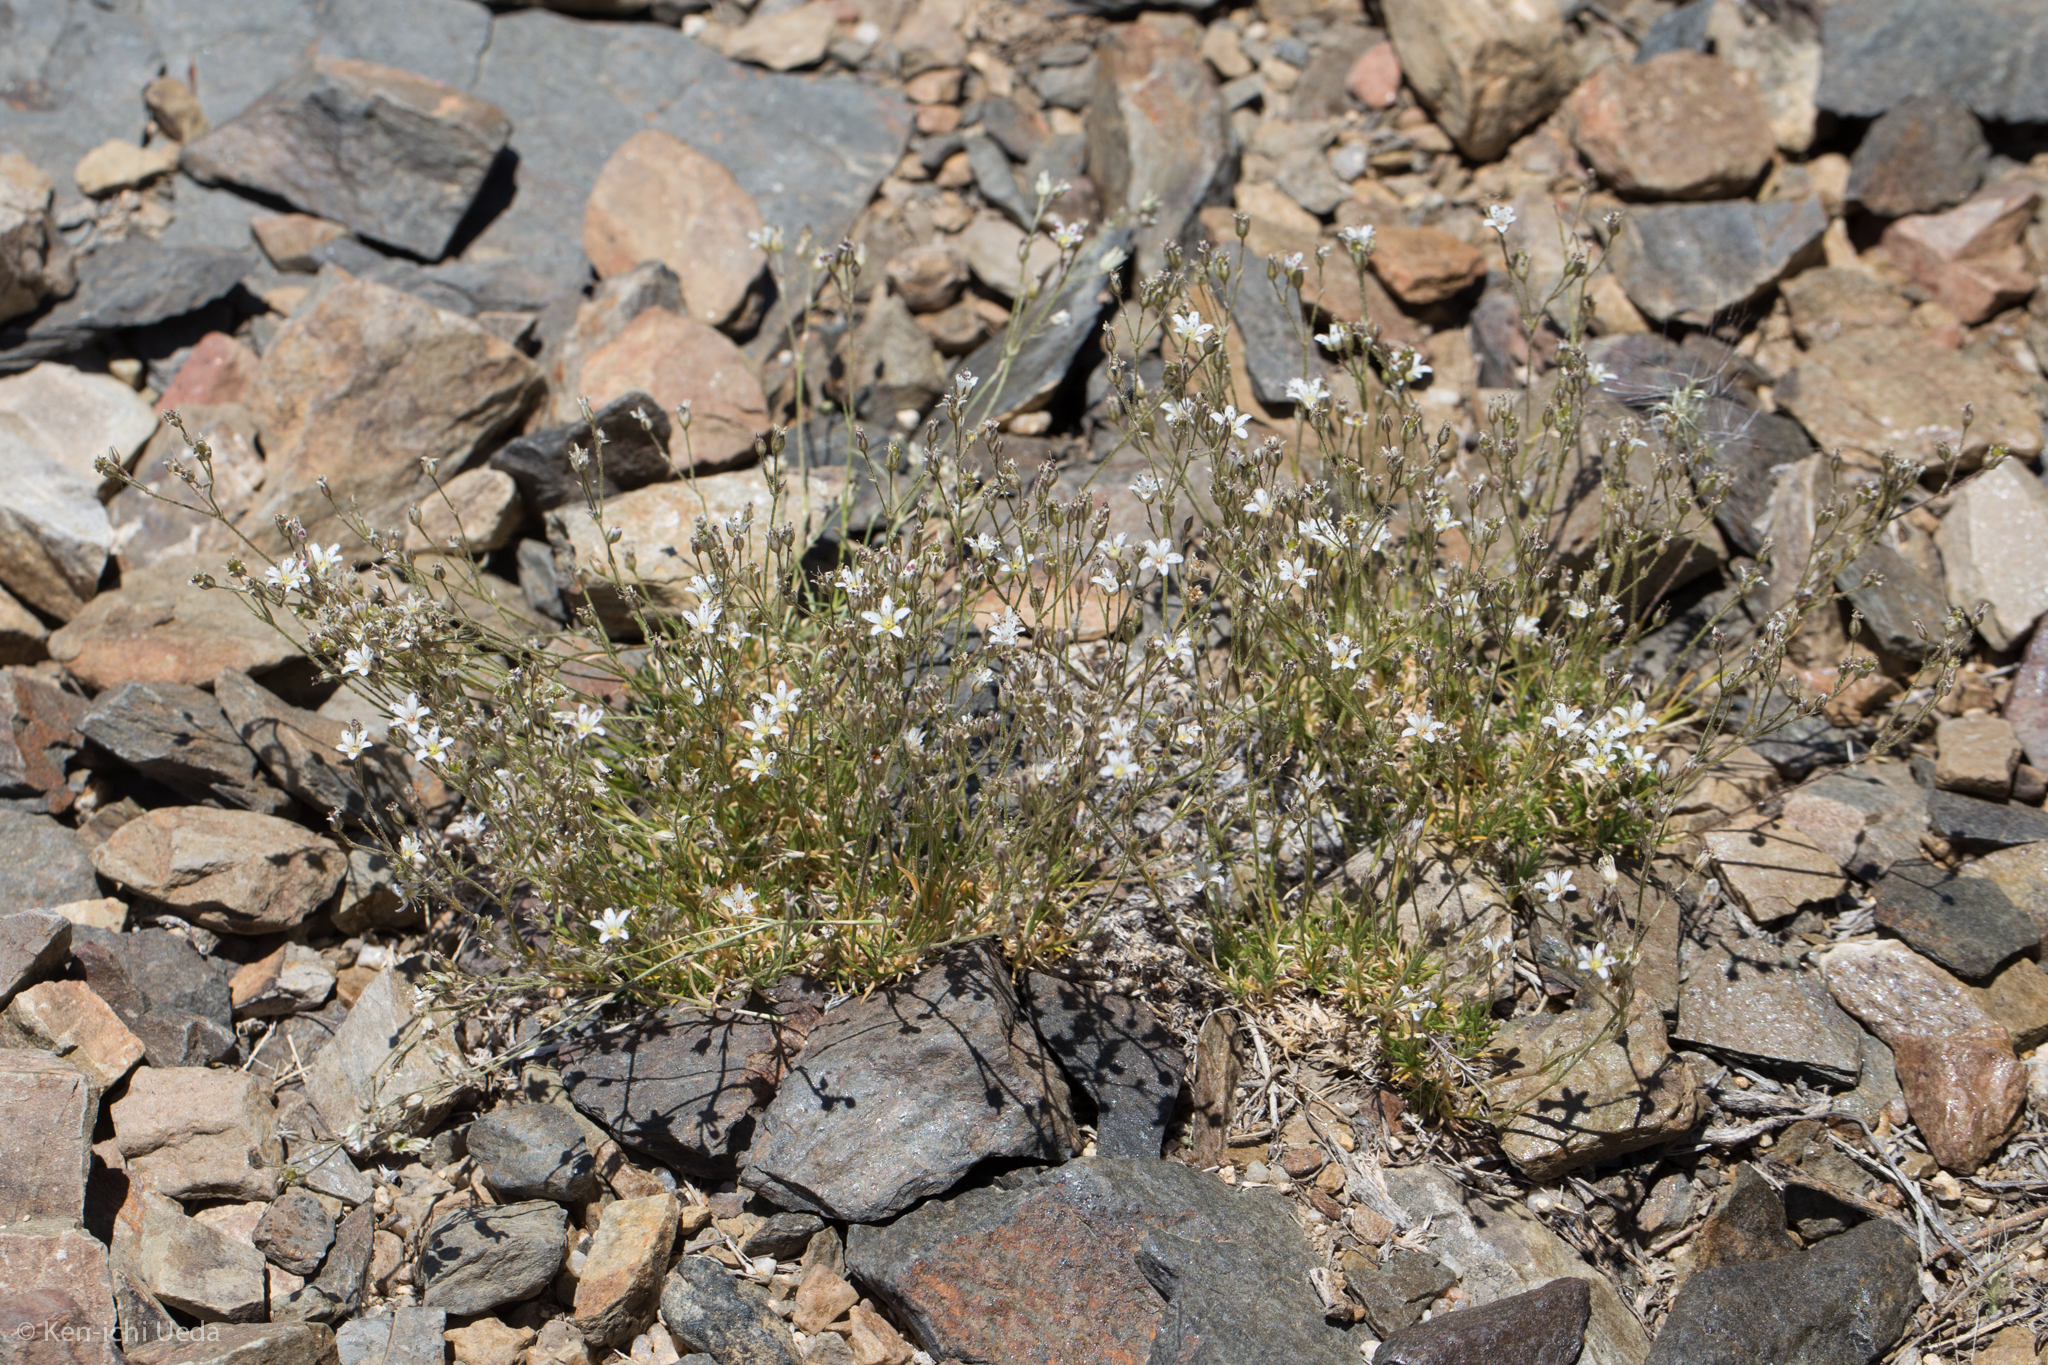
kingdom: Plantae
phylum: Tracheophyta
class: Magnoliopsida
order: Caryophyllales
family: Caryophyllaceae
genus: Eremogone
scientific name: Eremogone kingii
